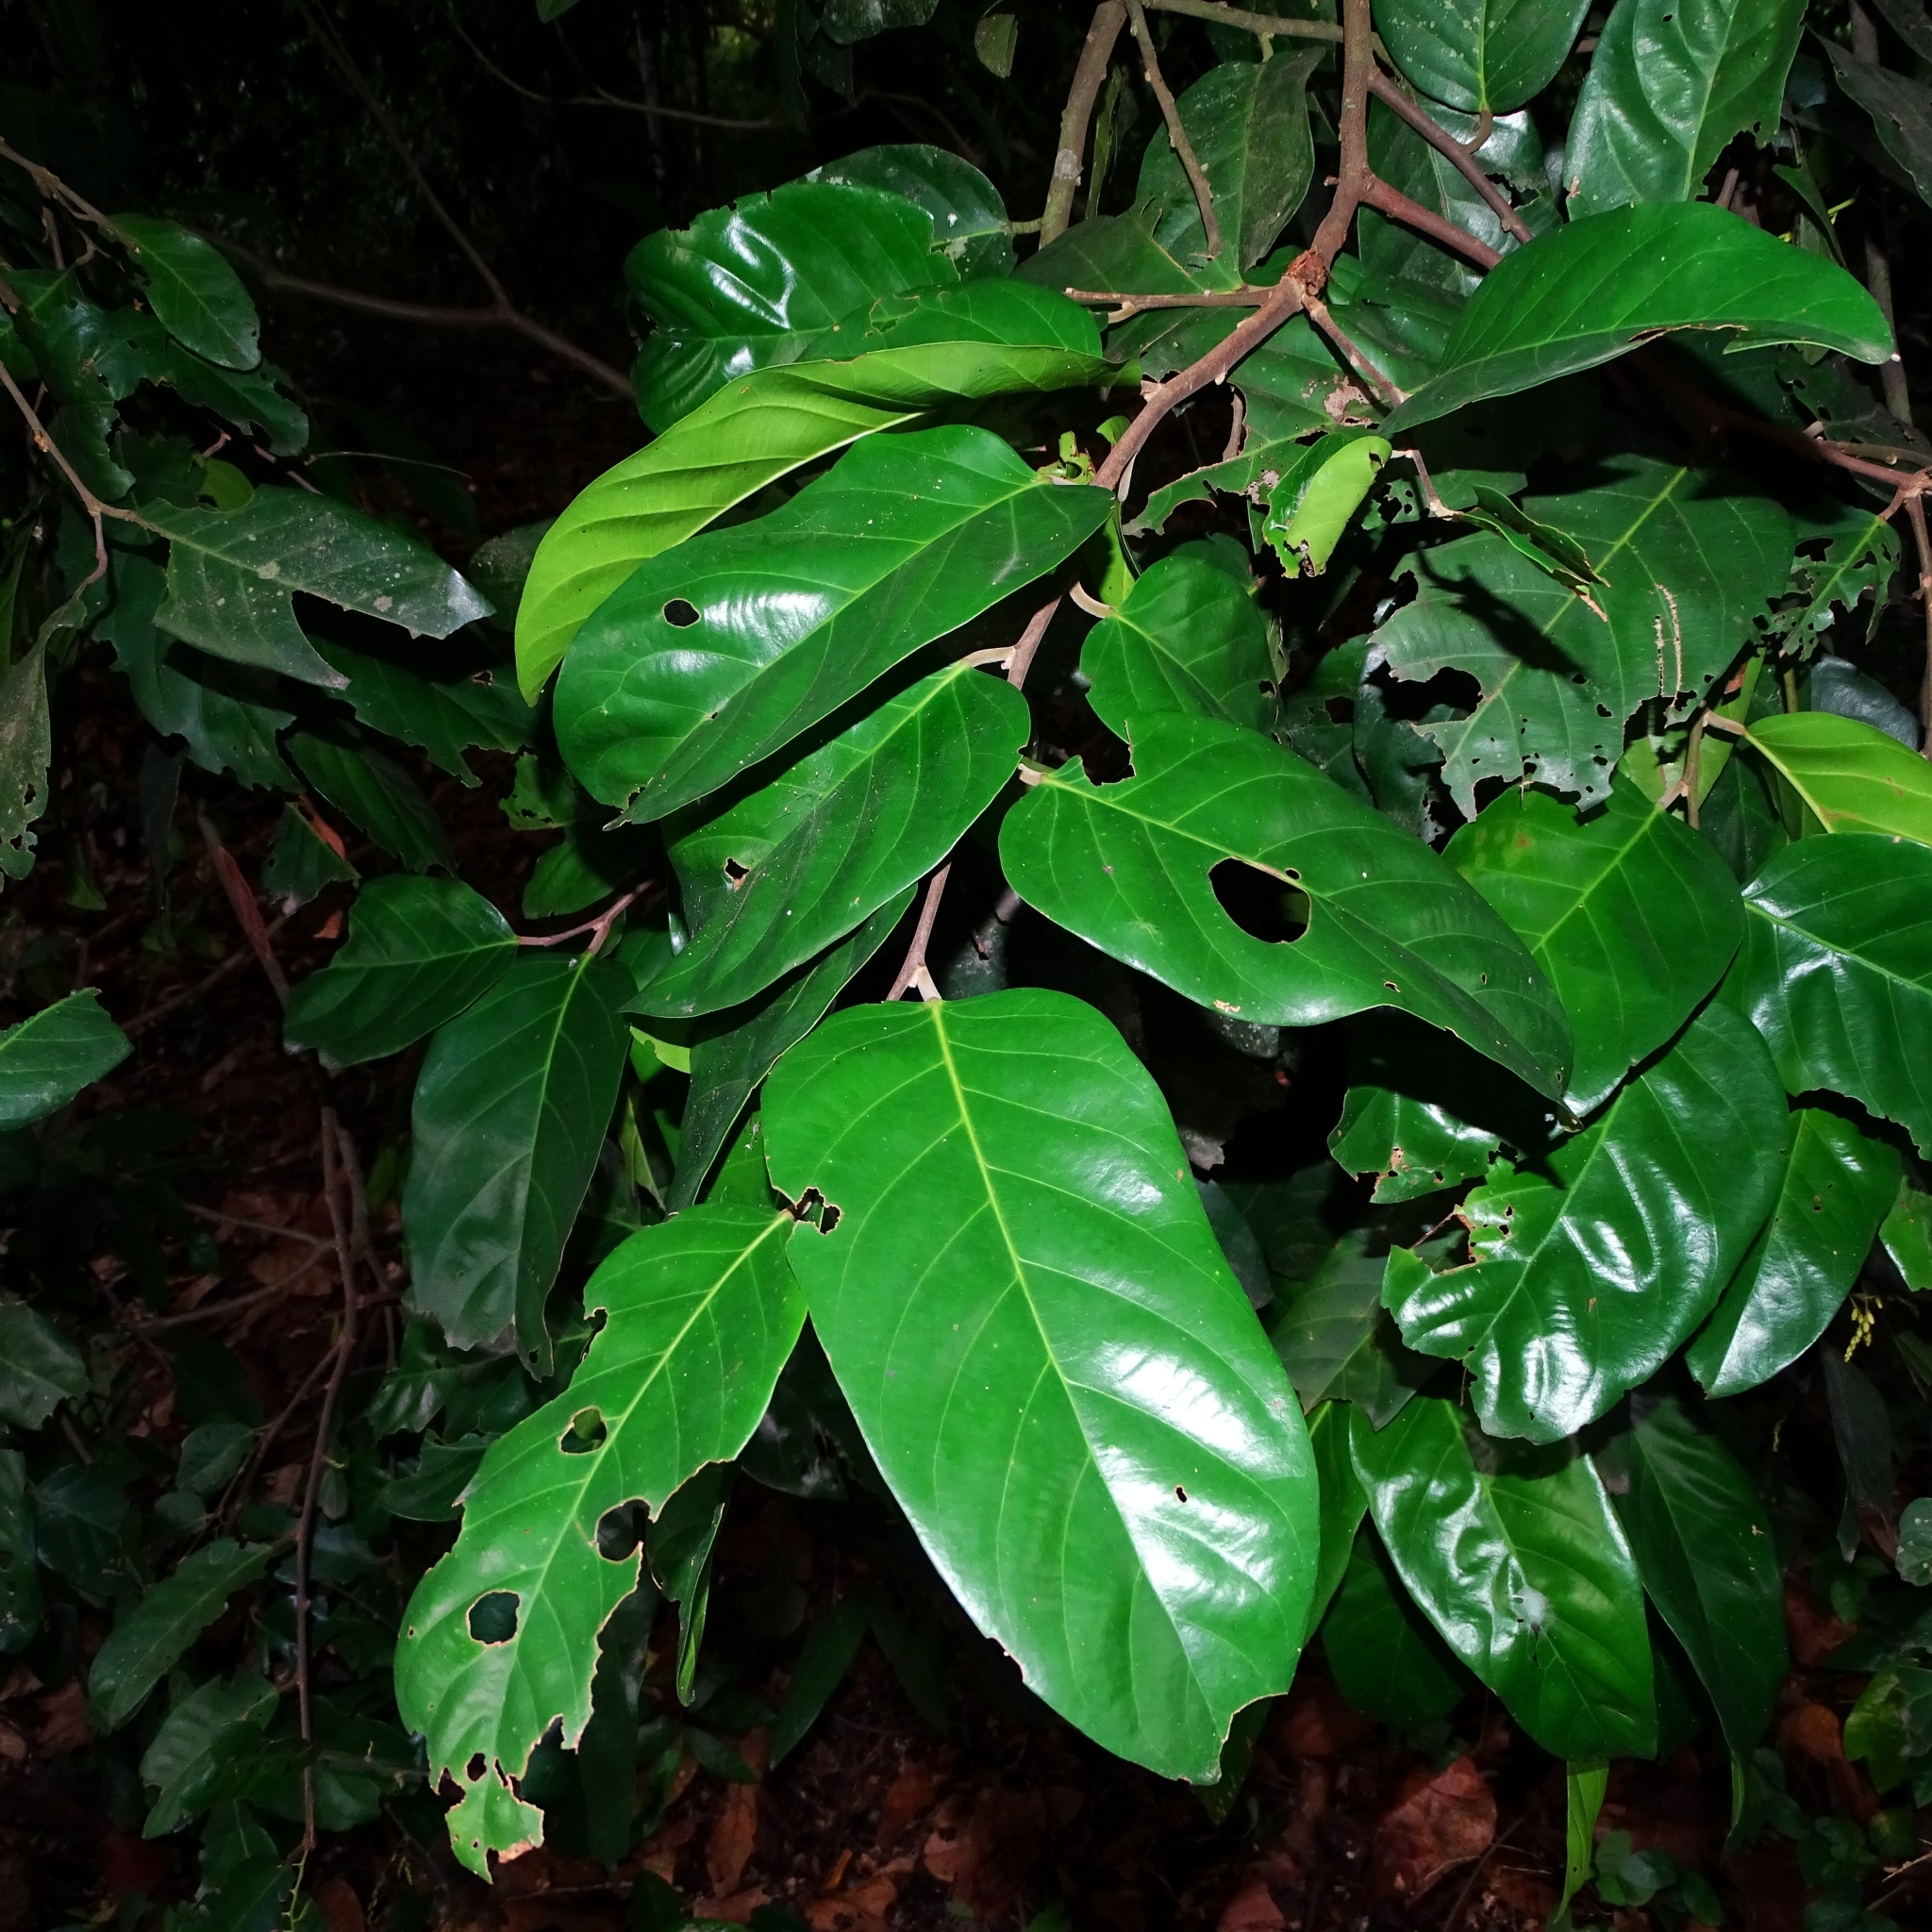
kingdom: Plantae
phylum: Tracheophyta
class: Magnoliopsida
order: Malvales
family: Dipterocarpaceae
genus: Hopea
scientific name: Hopea ponga
